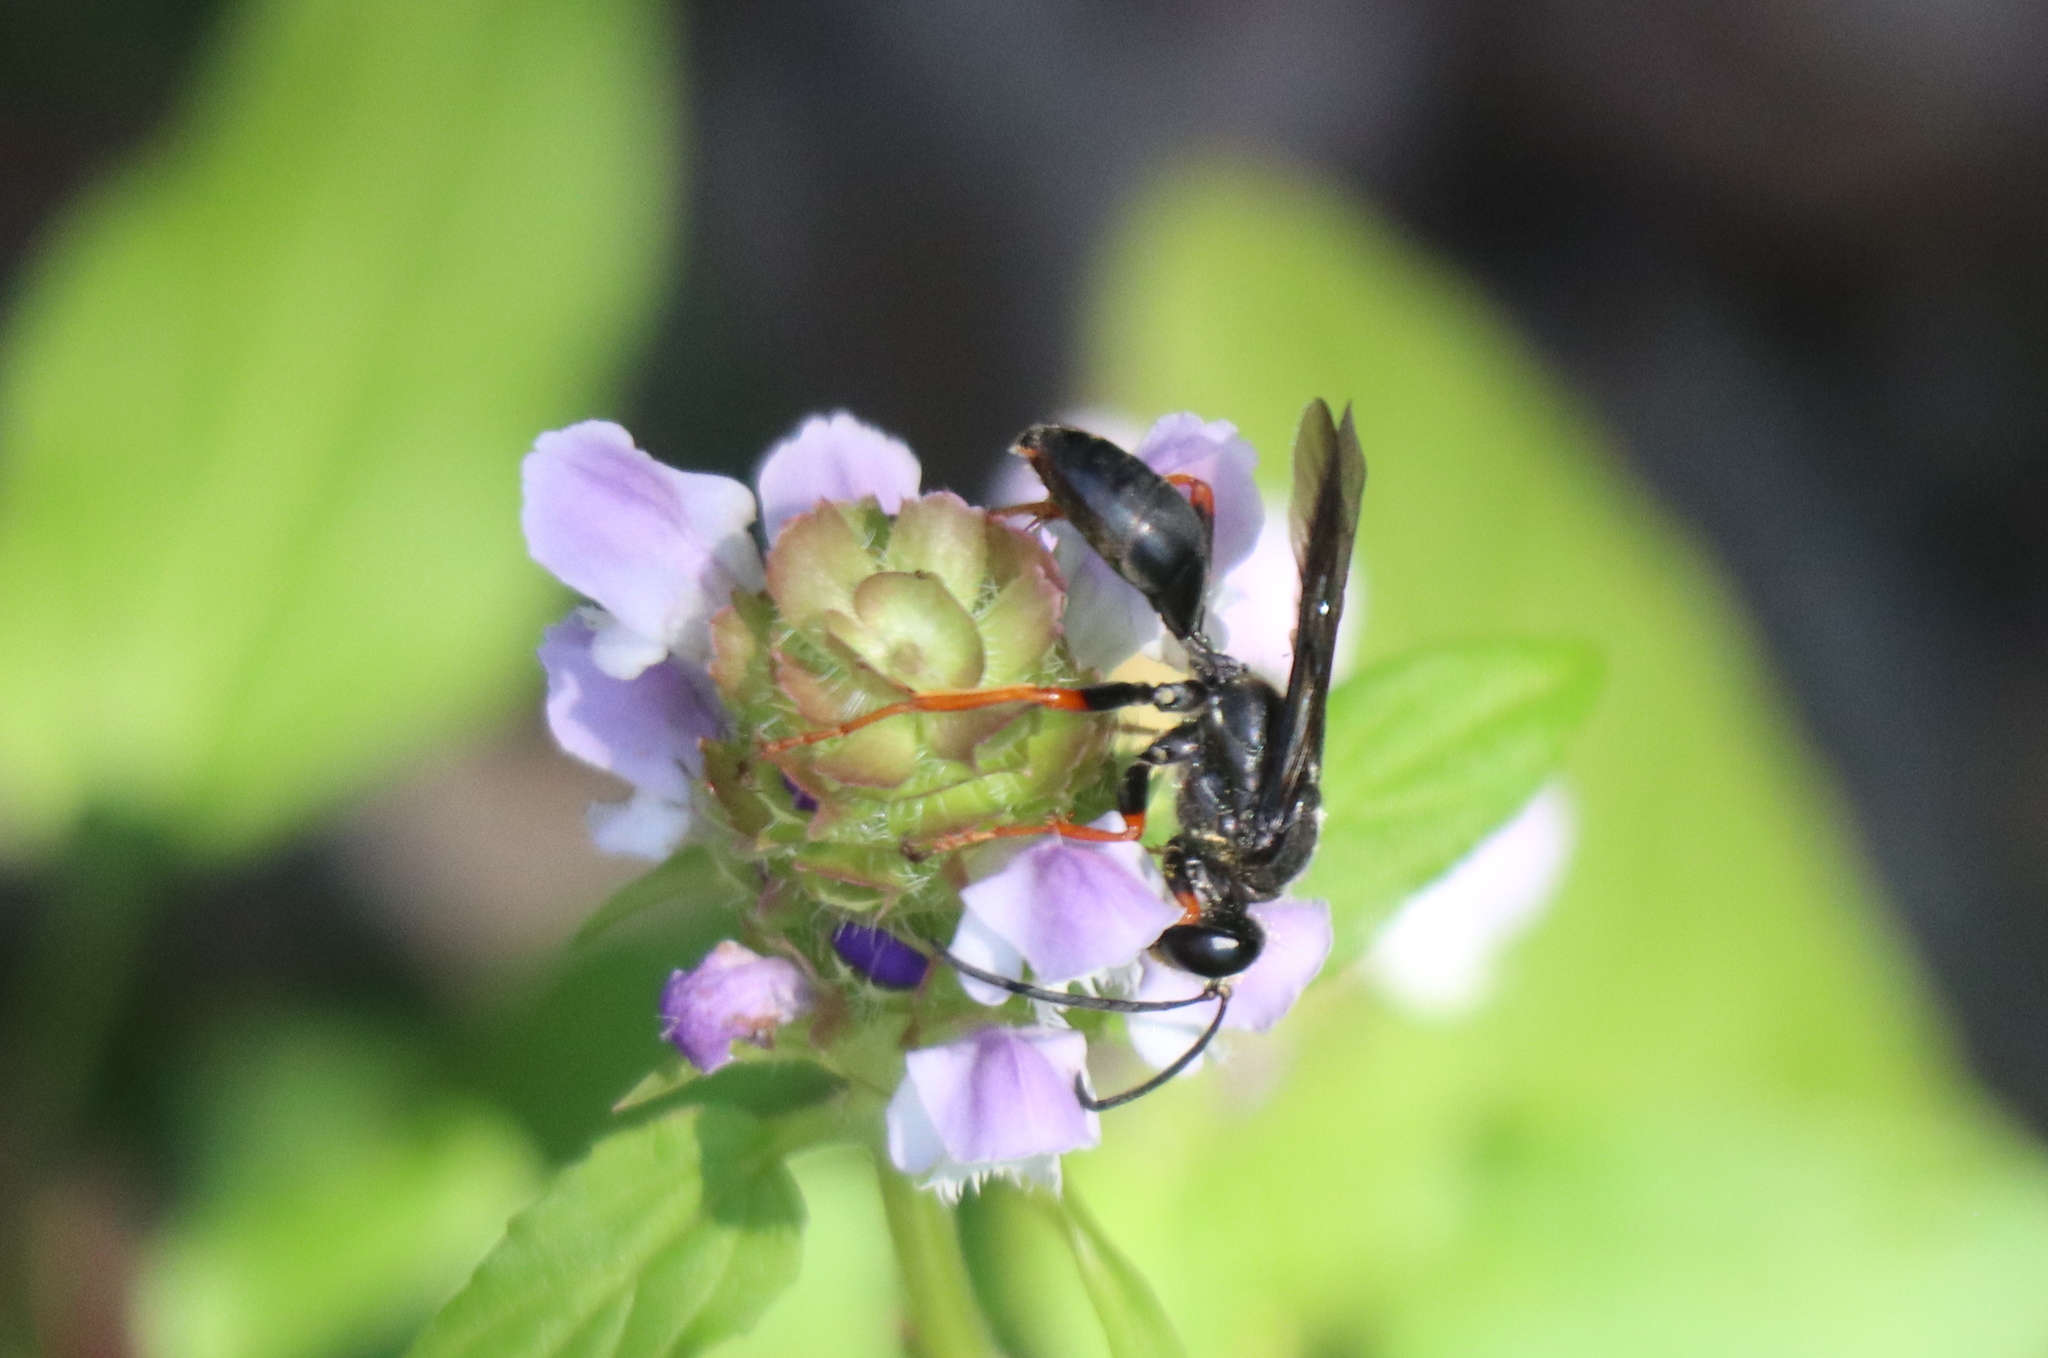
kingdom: Animalia
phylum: Arthropoda
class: Insecta
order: Hymenoptera
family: Sphecidae
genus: Sphex
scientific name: Sphex nudus
